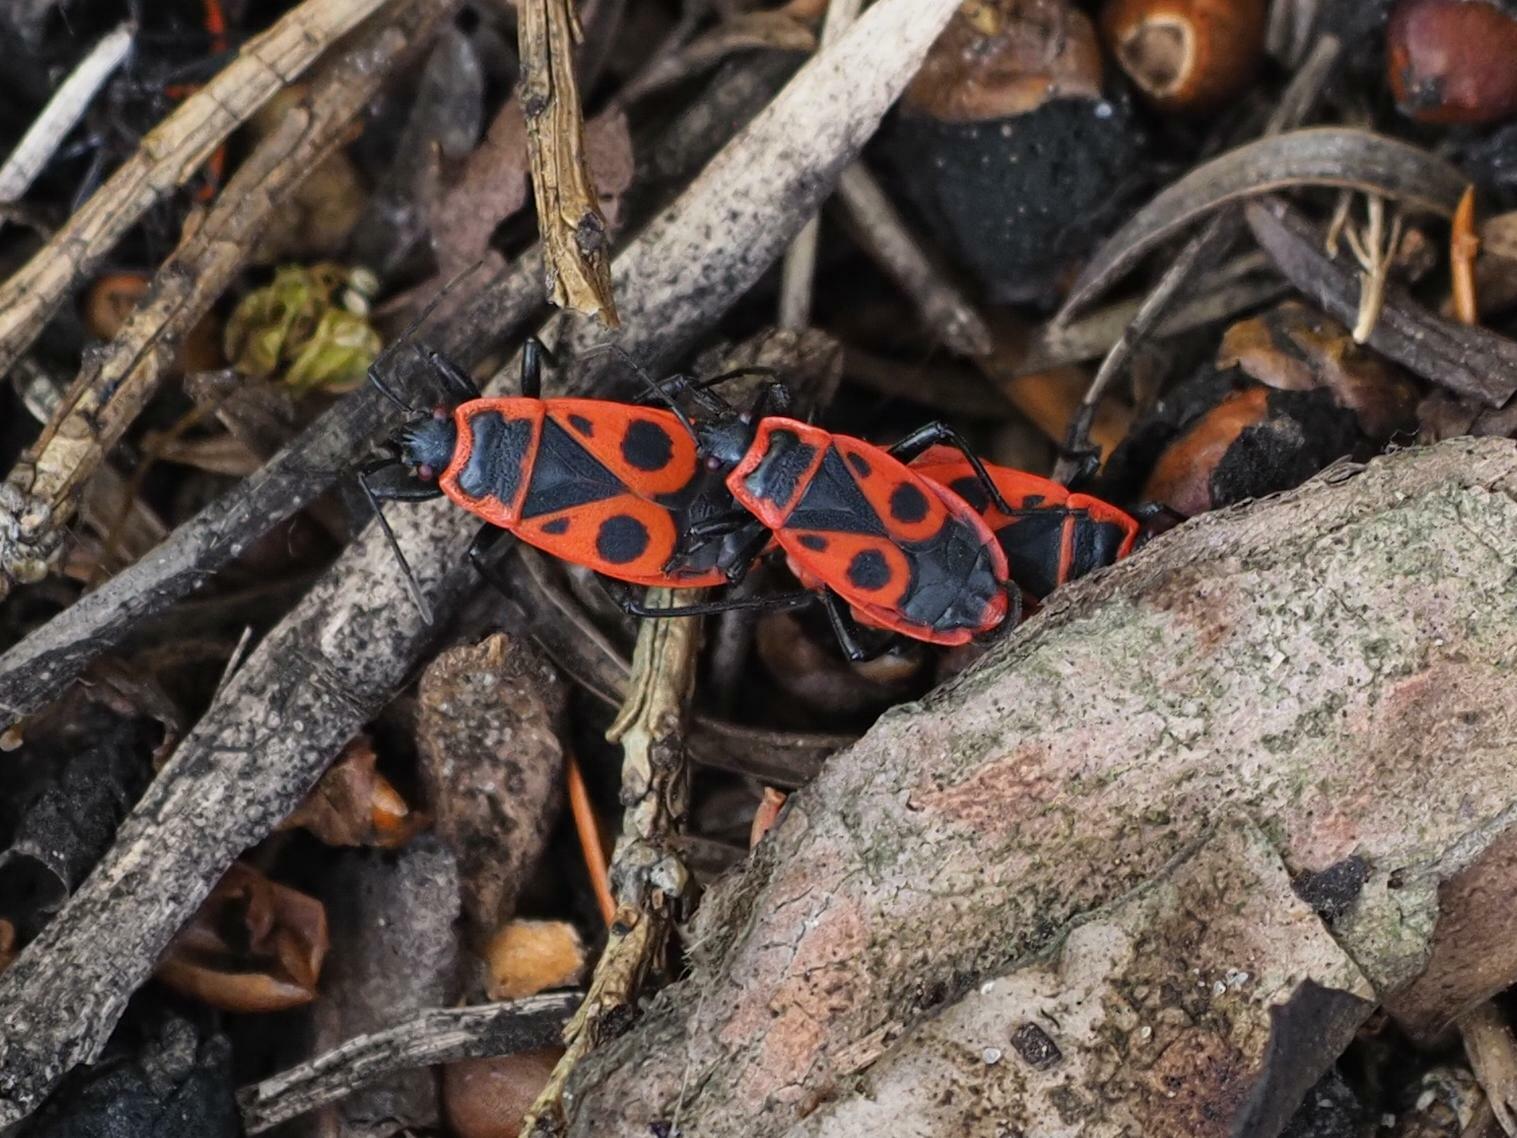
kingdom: Animalia
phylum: Arthropoda
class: Insecta
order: Hemiptera
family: Pyrrhocoridae
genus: Pyrrhocoris
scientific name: Pyrrhocoris apterus
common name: Firebug
